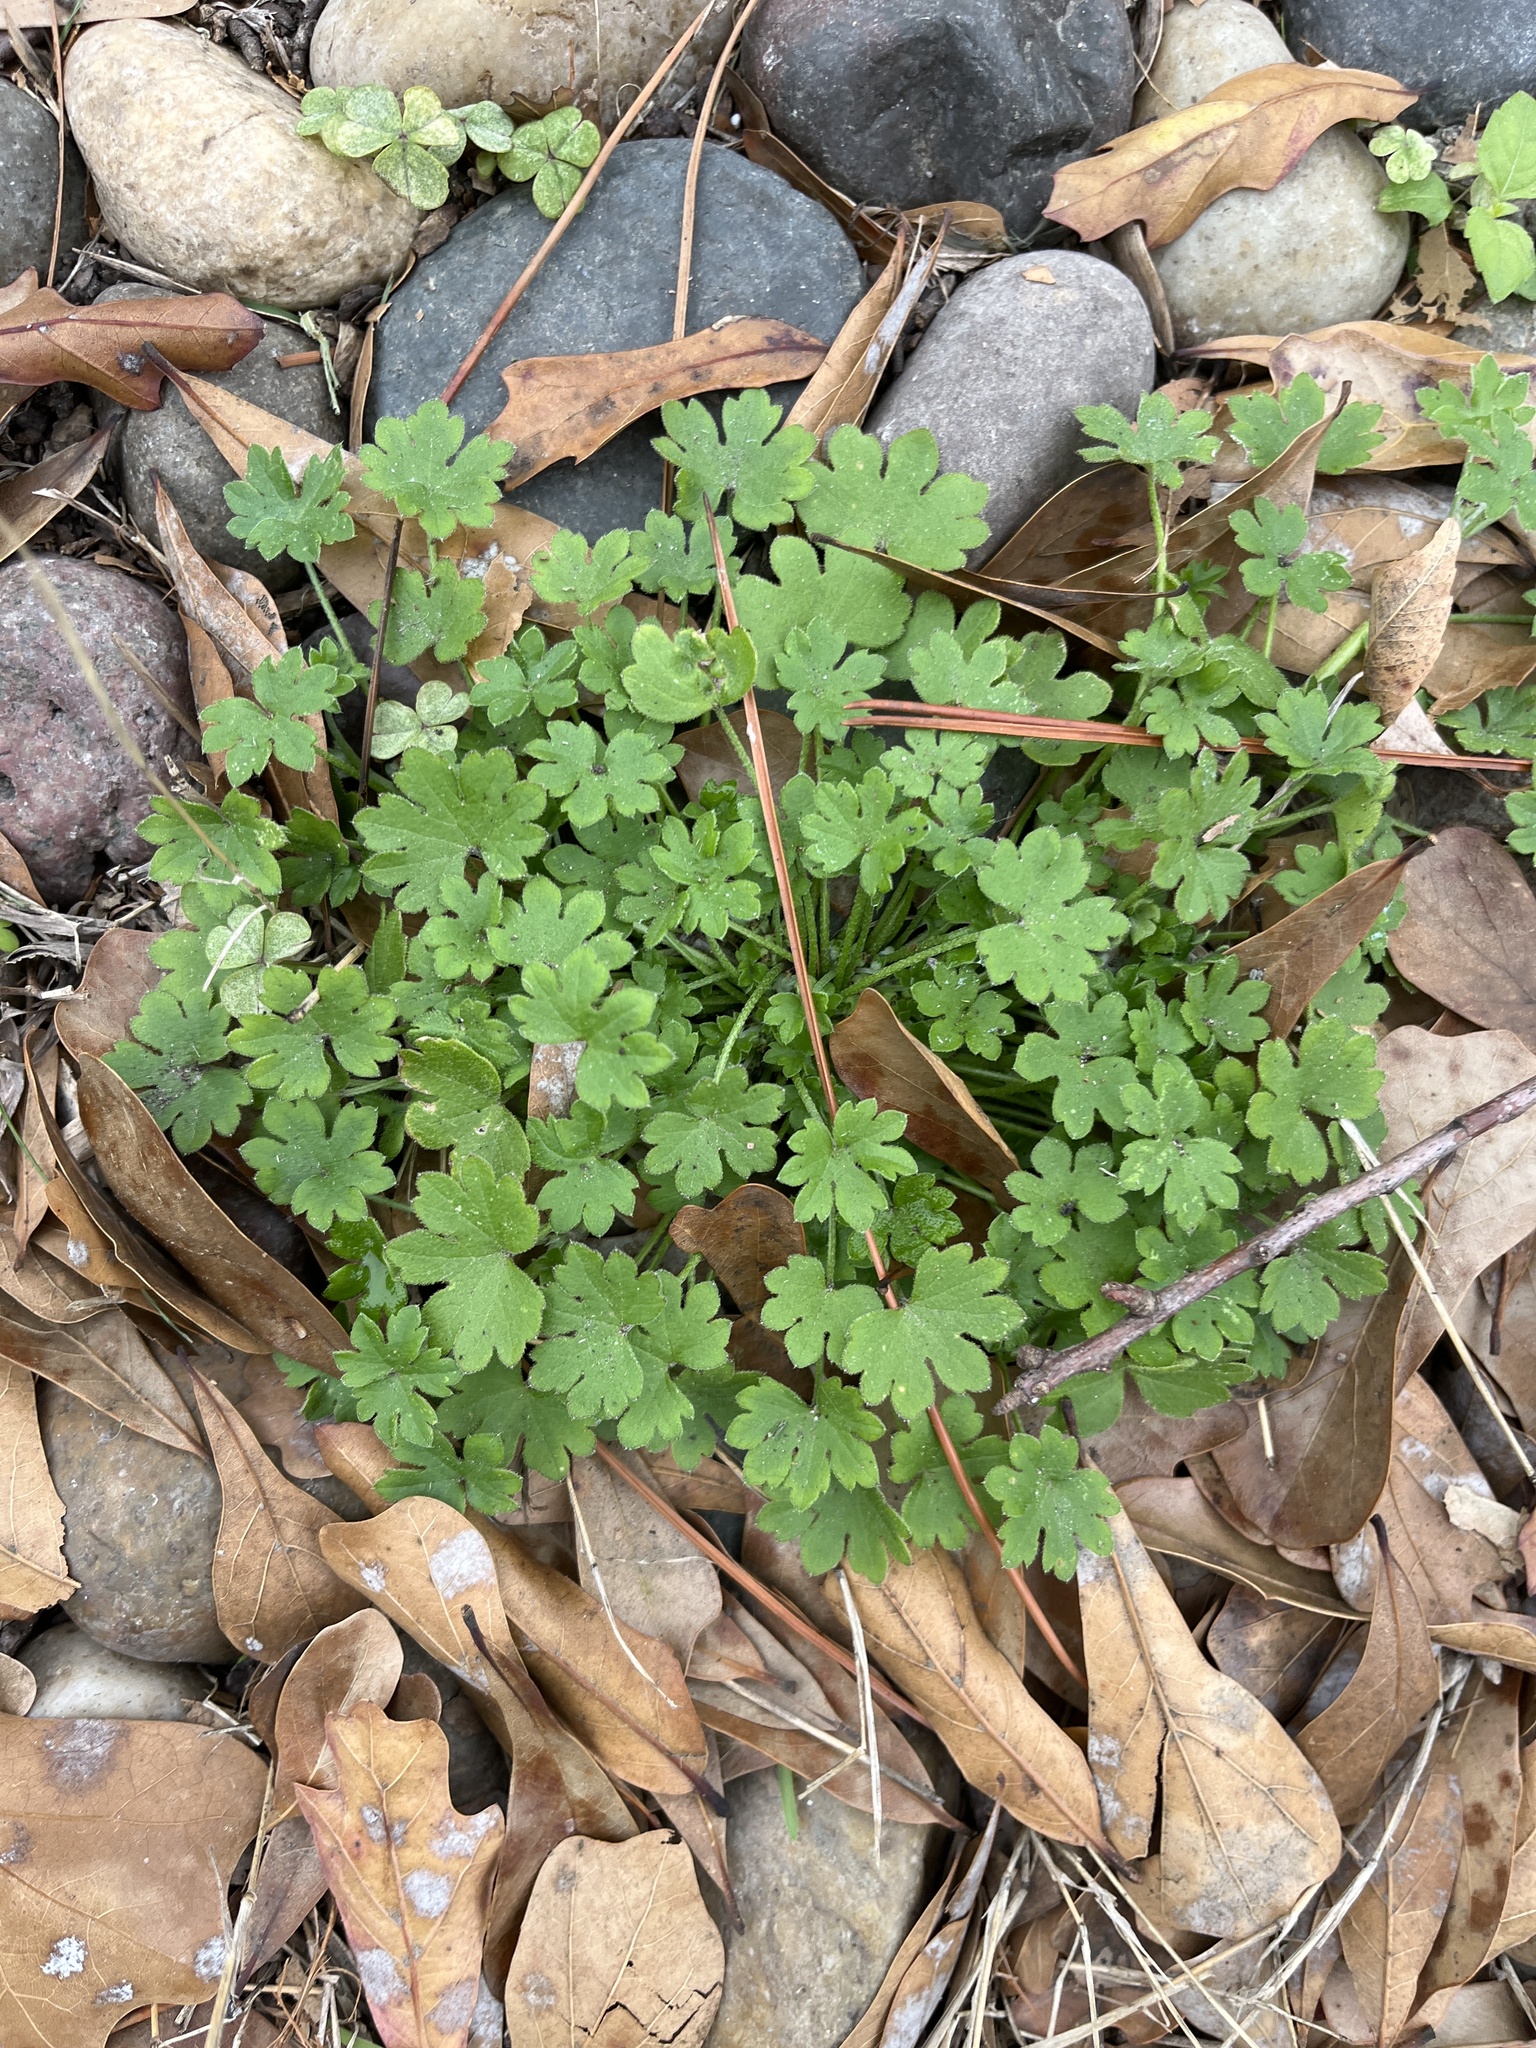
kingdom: Plantae
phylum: Tracheophyta
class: Magnoliopsida
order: Apiales
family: Apiaceae
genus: Bowlesia
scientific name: Bowlesia incana
